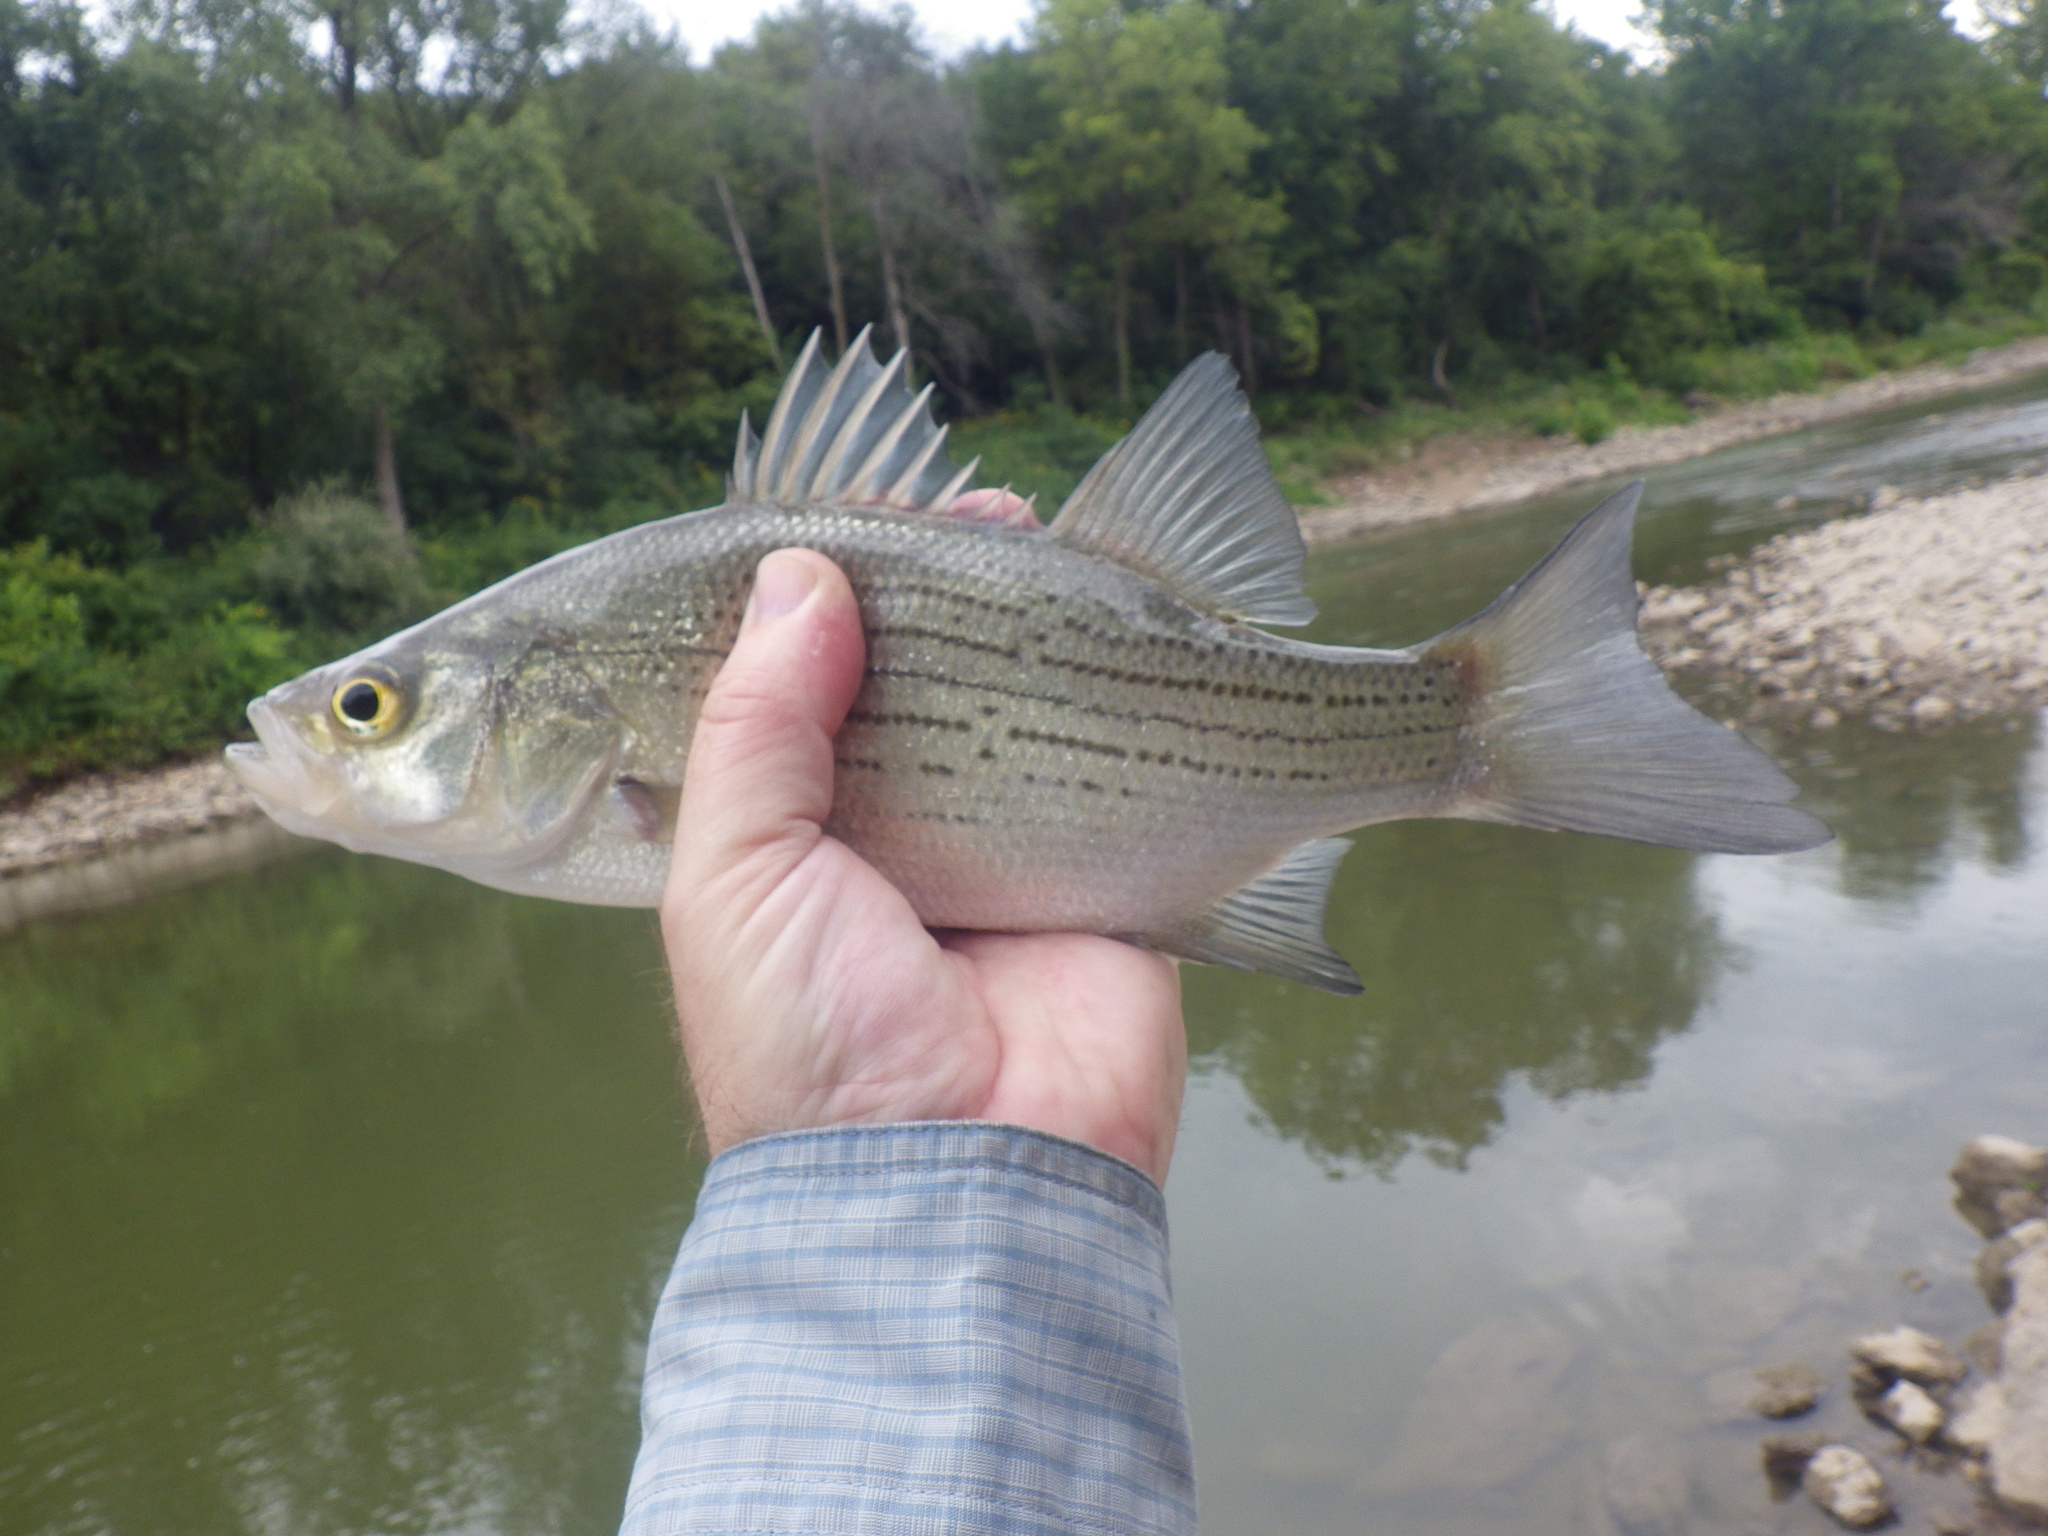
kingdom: Animalia
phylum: Chordata
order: Perciformes
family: Moronidae
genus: Morone
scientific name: Morone chrysops
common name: White bass
